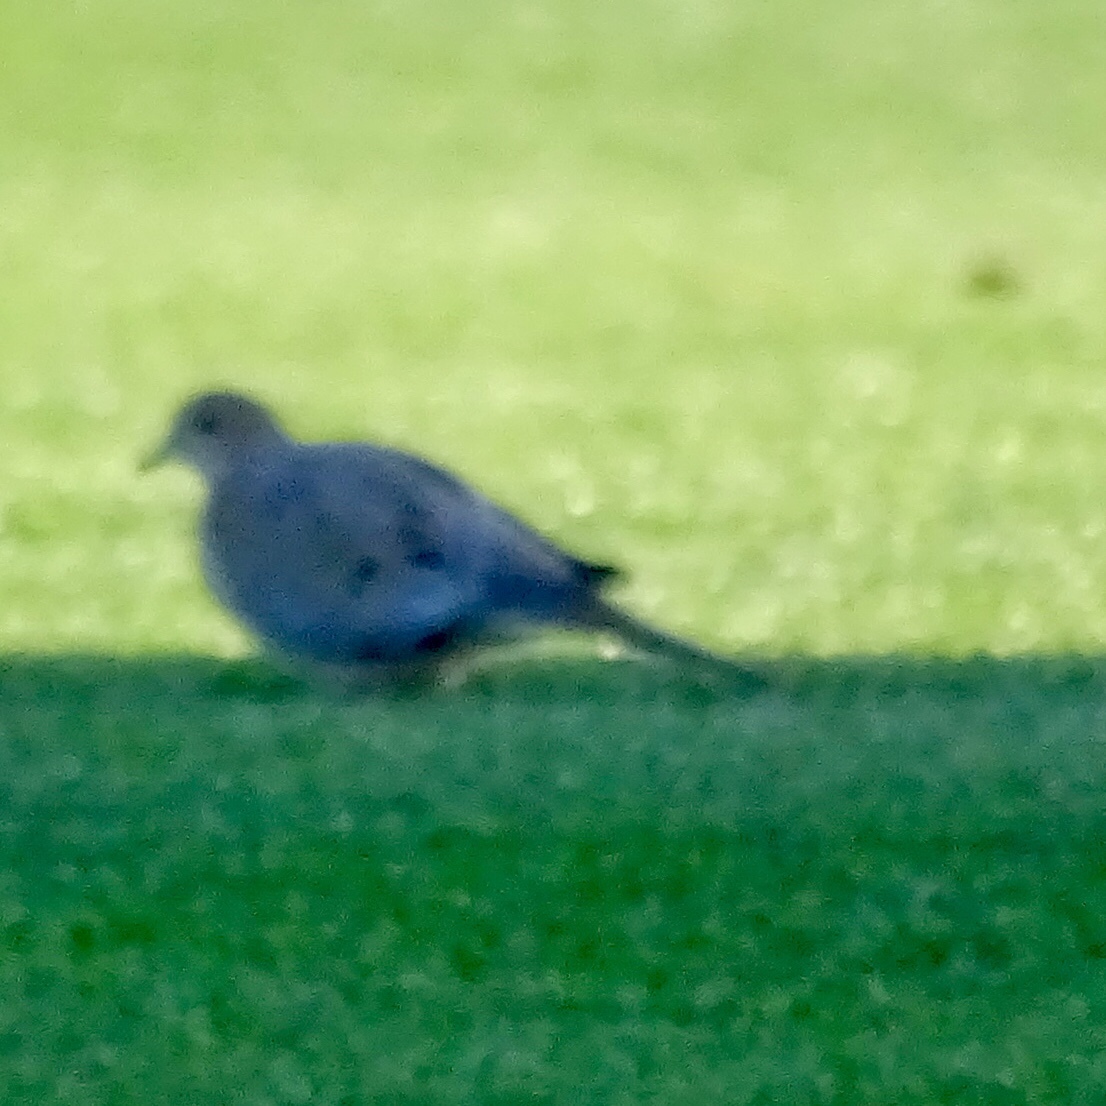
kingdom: Animalia
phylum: Chordata
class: Aves
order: Columbiformes
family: Columbidae
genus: Zenaida
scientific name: Zenaida macroura
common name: Mourning dove
